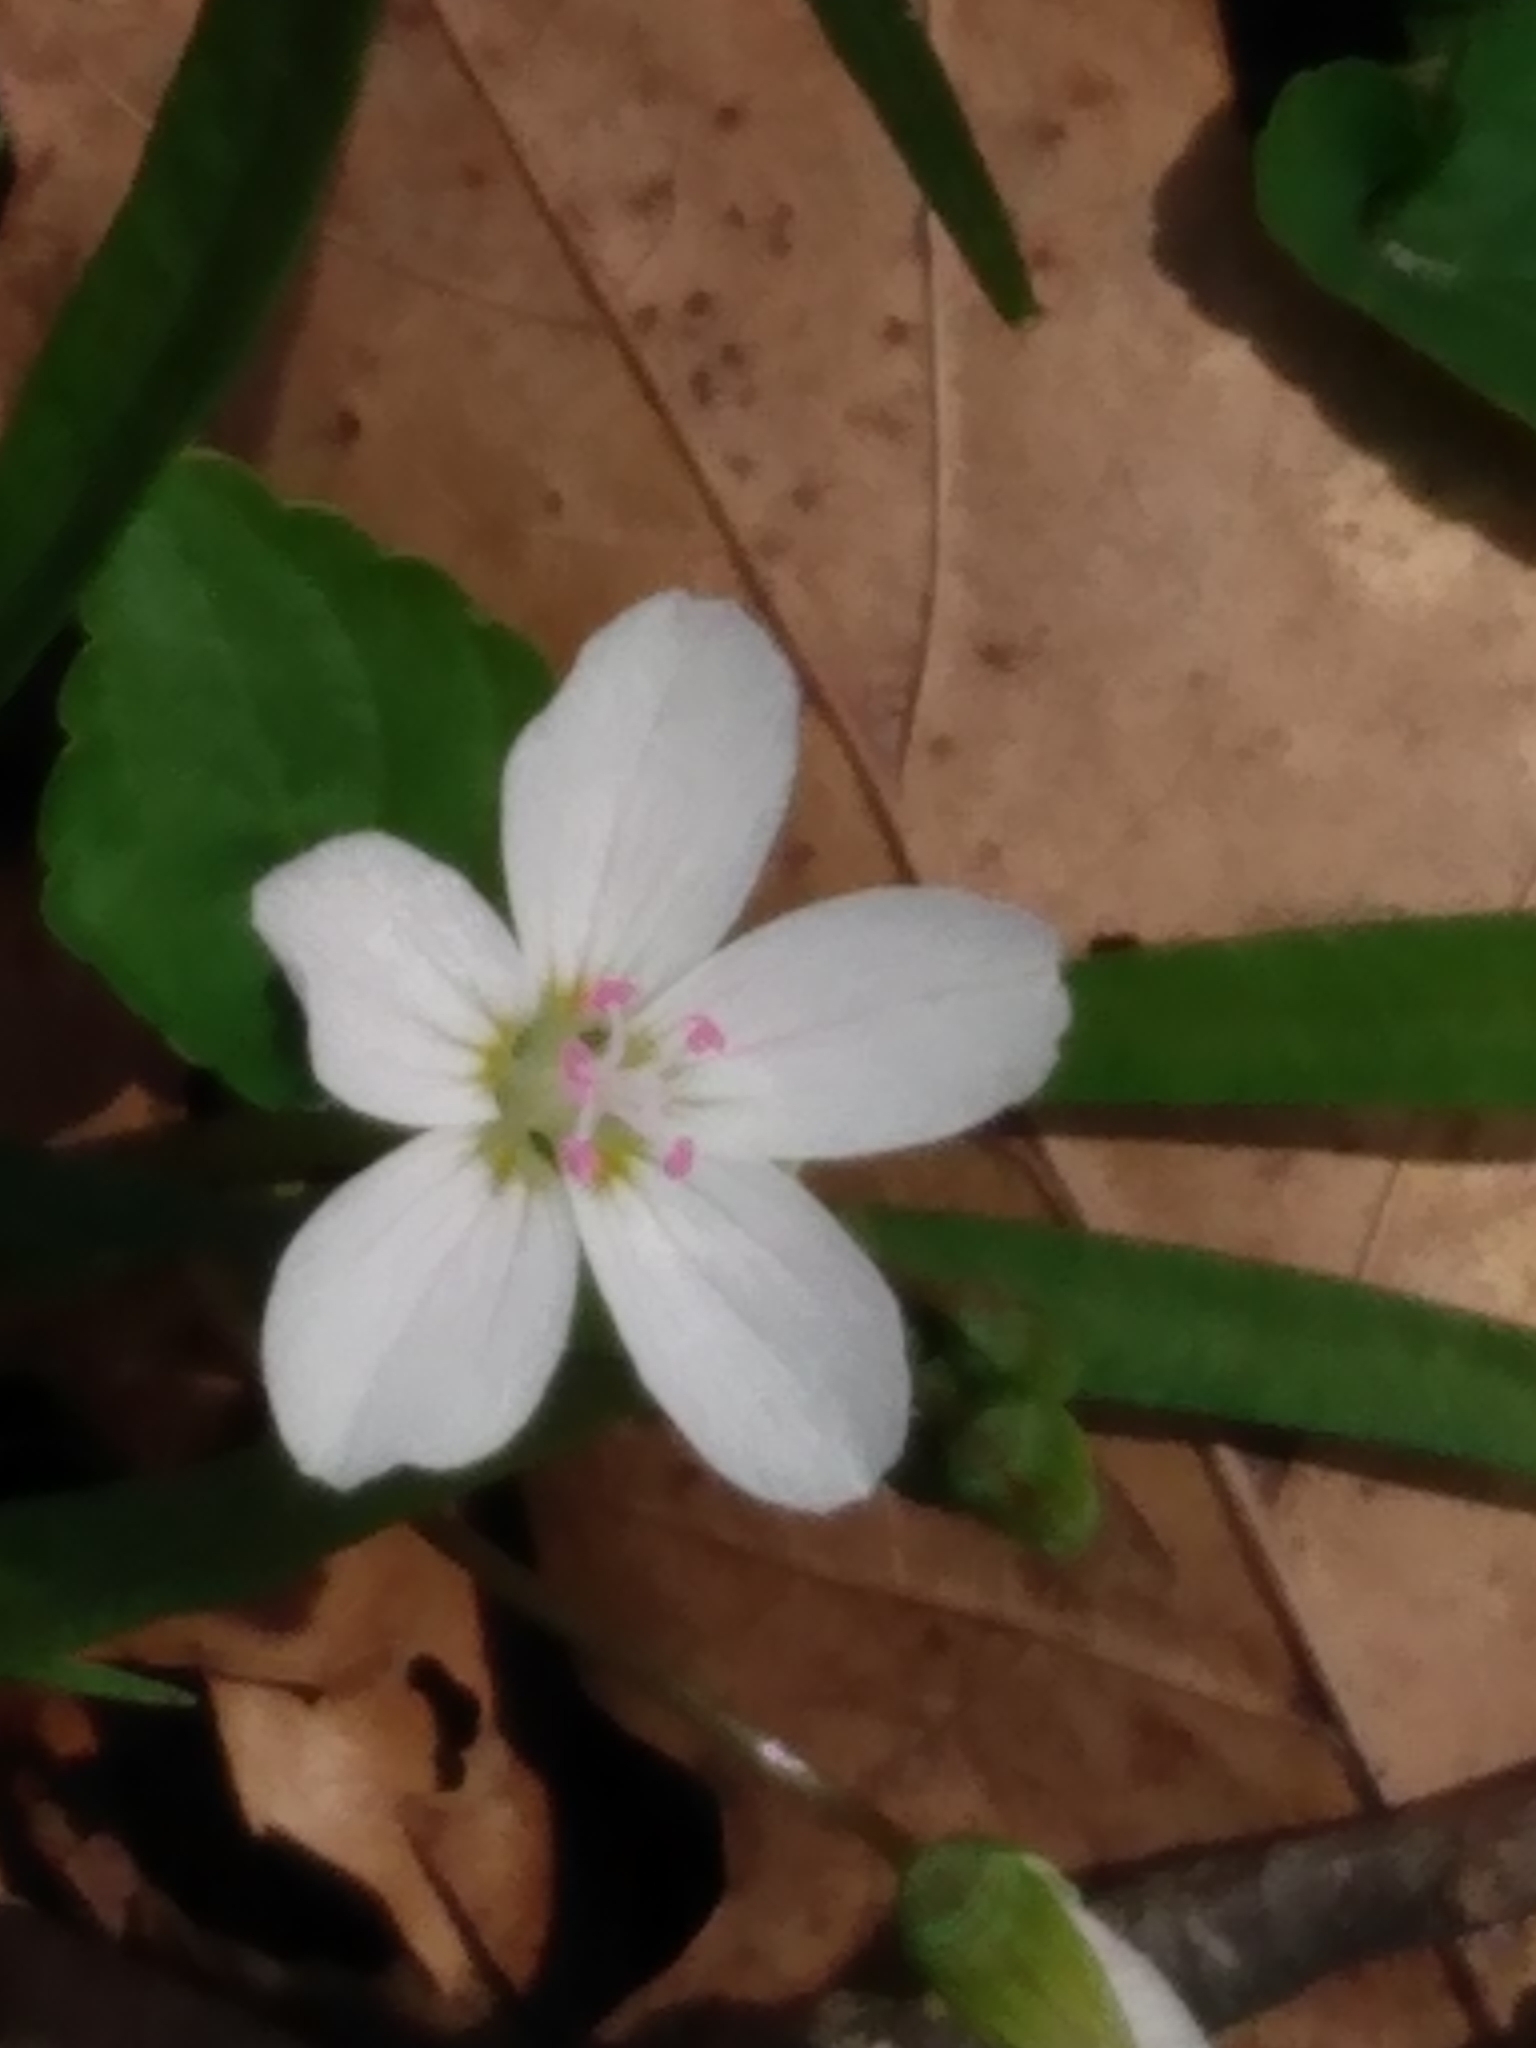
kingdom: Plantae
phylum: Tracheophyta
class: Magnoliopsida
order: Caryophyllales
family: Montiaceae
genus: Claytonia
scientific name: Claytonia virginica
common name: Virginia springbeauty
